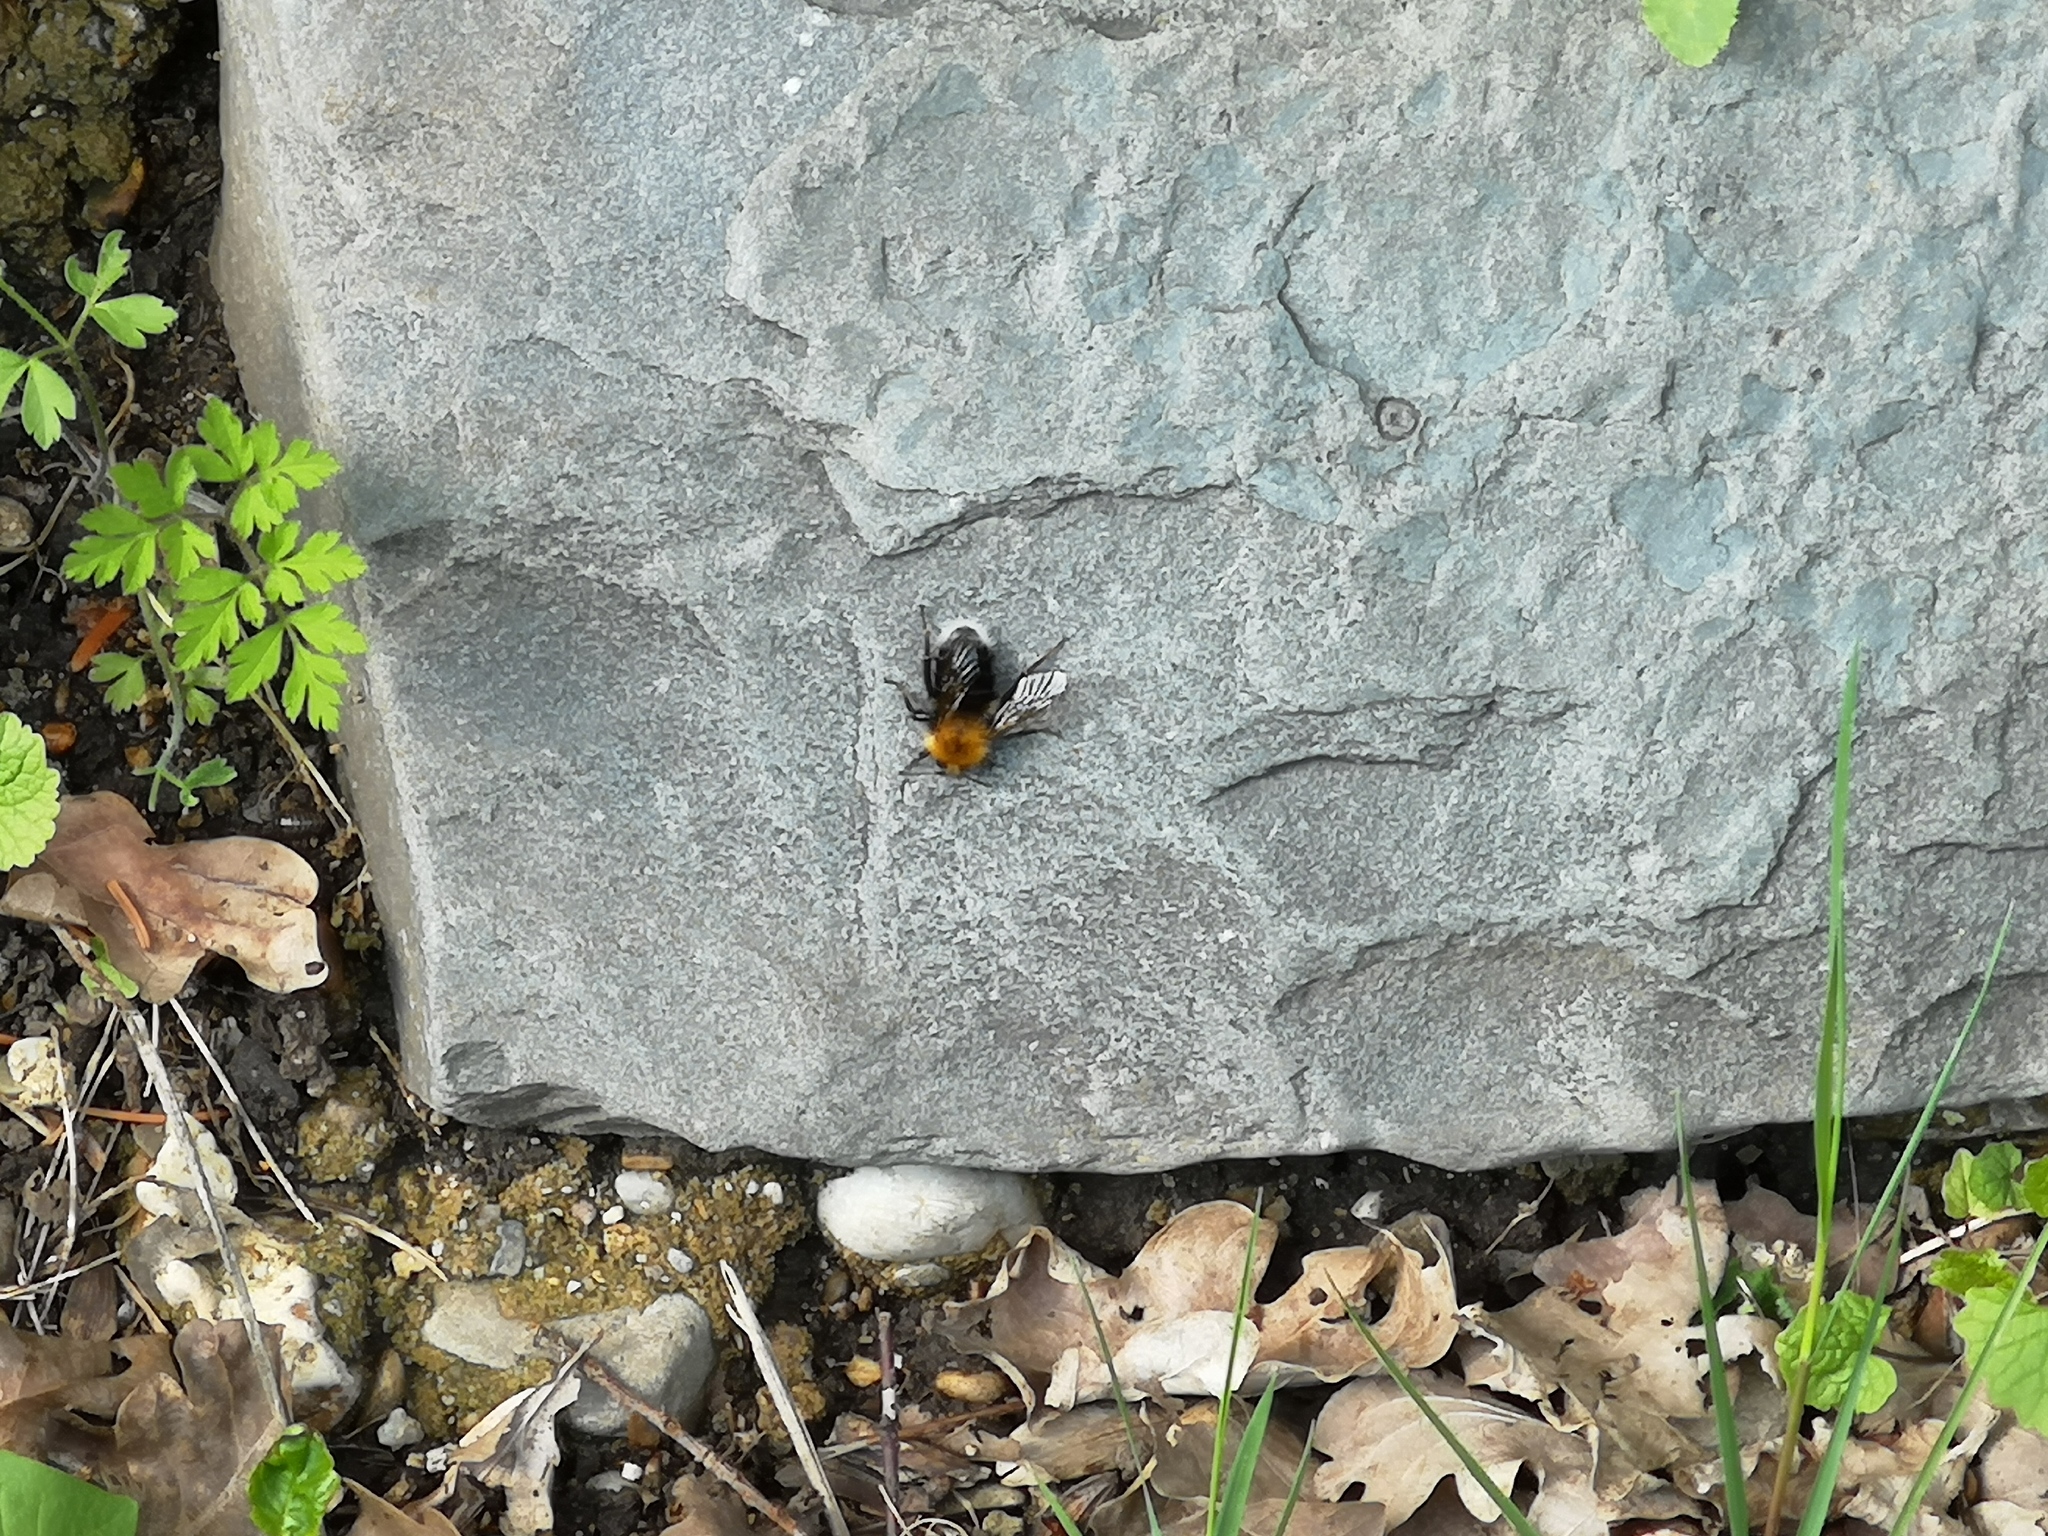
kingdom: Animalia
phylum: Arthropoda
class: Insecta
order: Hymenoptera
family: Apidae
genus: Bombus
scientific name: Bombus hypnorum
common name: New garden bumblebee
